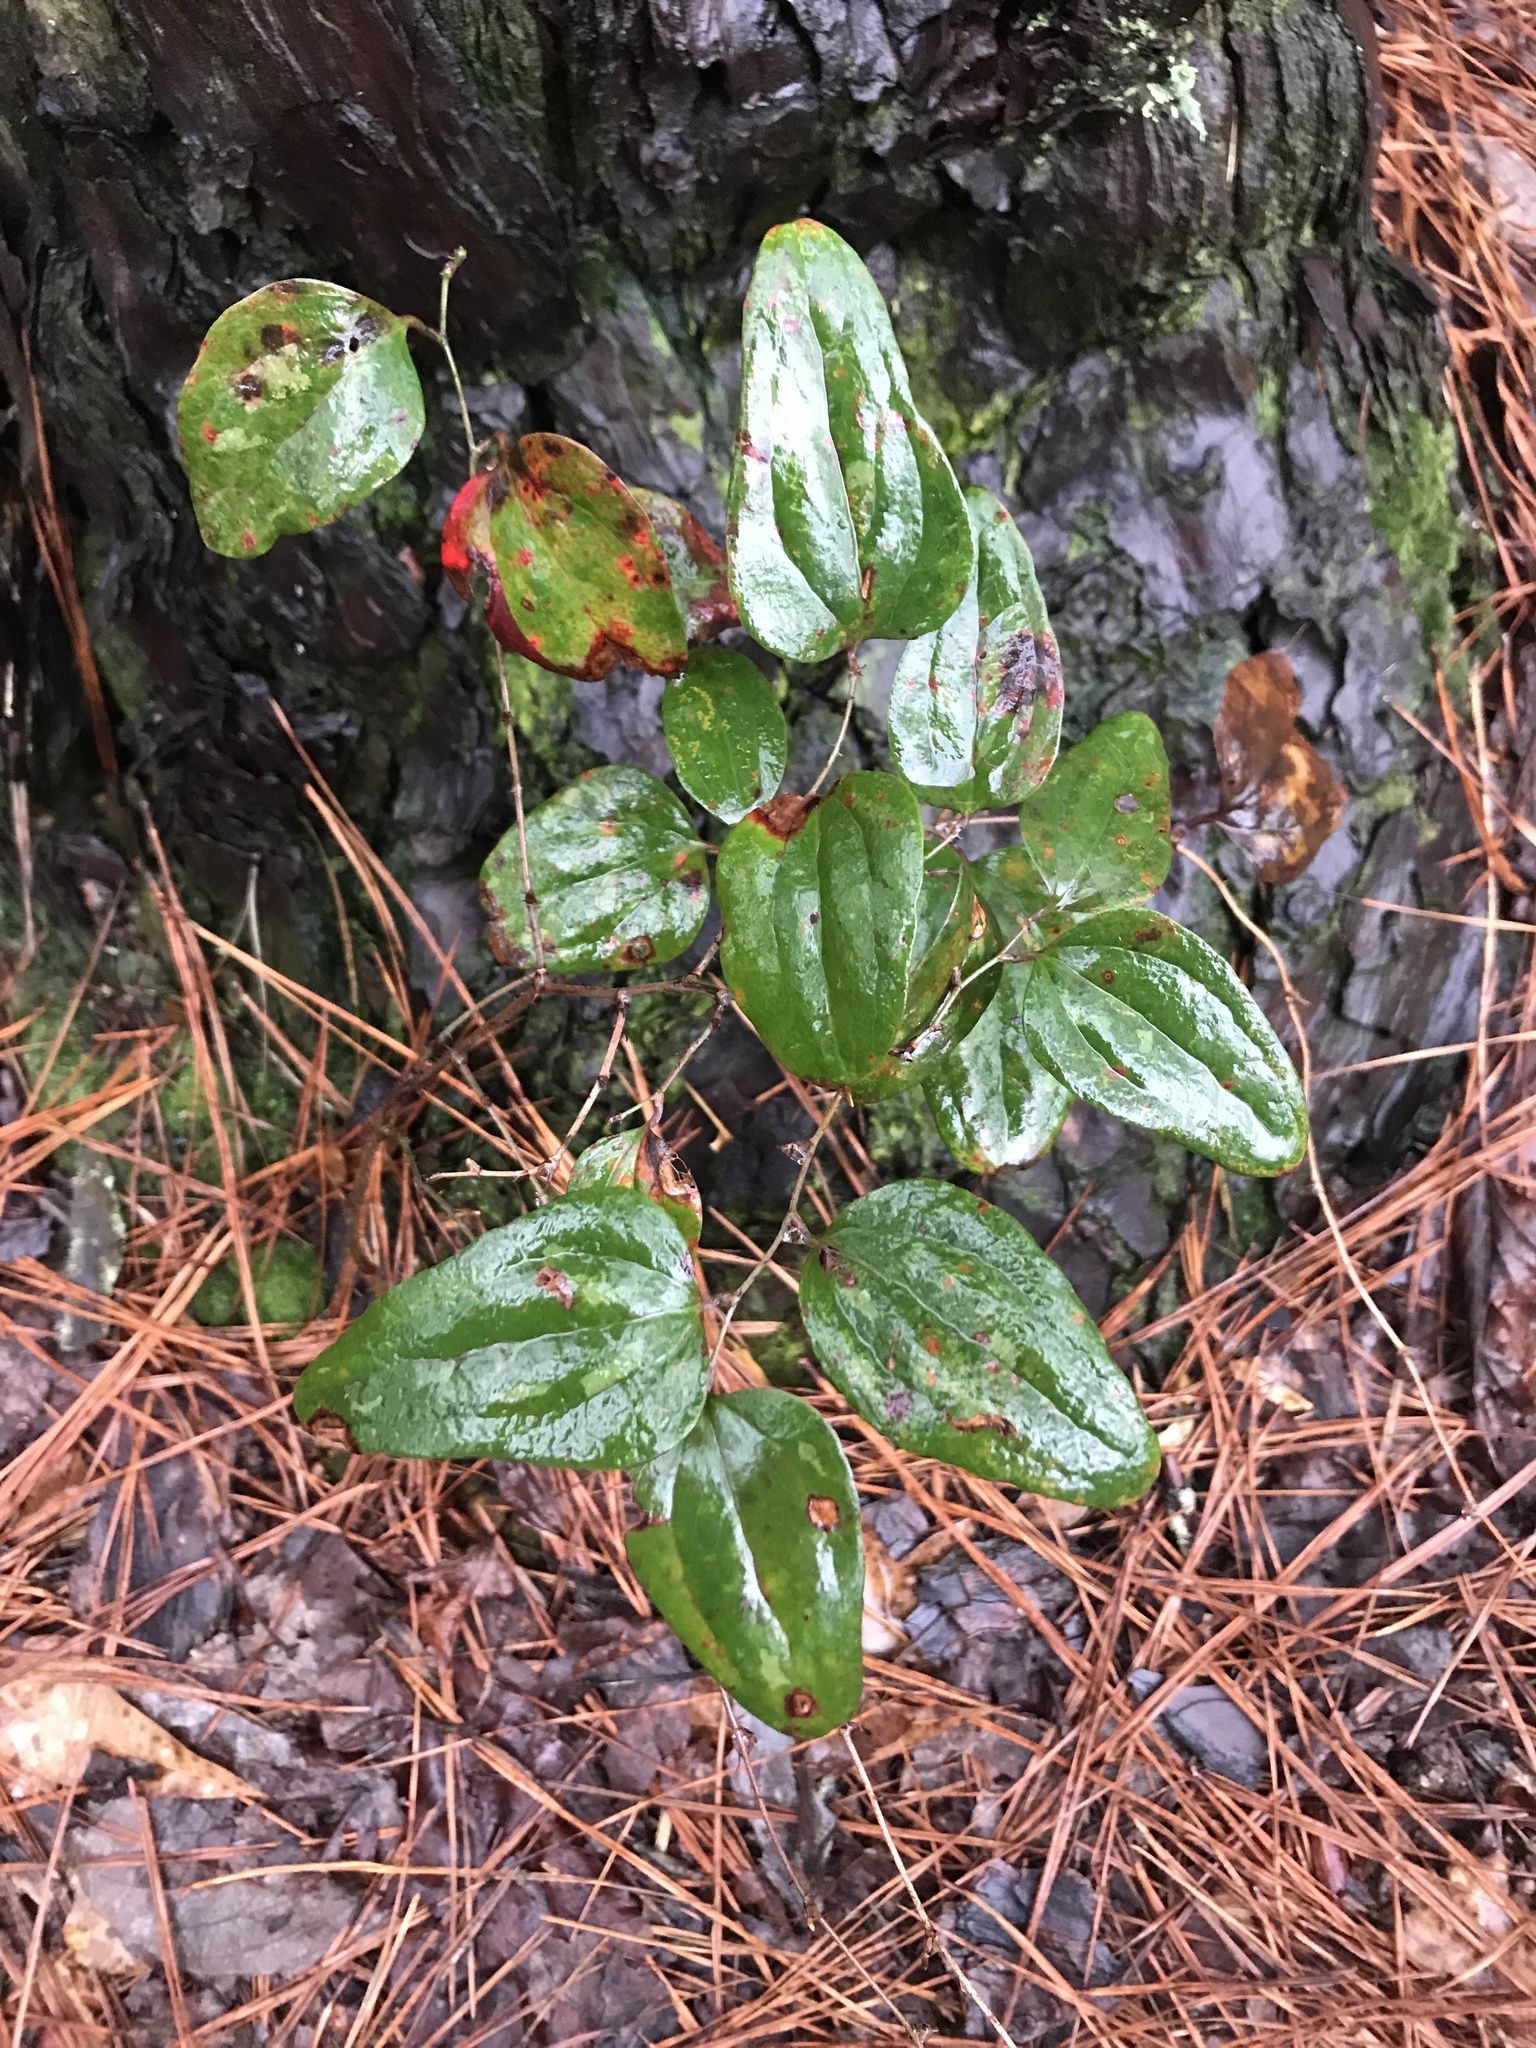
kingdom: Plantae
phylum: Tracheophyta
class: Liliopsida
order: Liliales
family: Smilacaceae
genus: Smilax
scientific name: Smilax glauca
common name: Cat greenbrier
